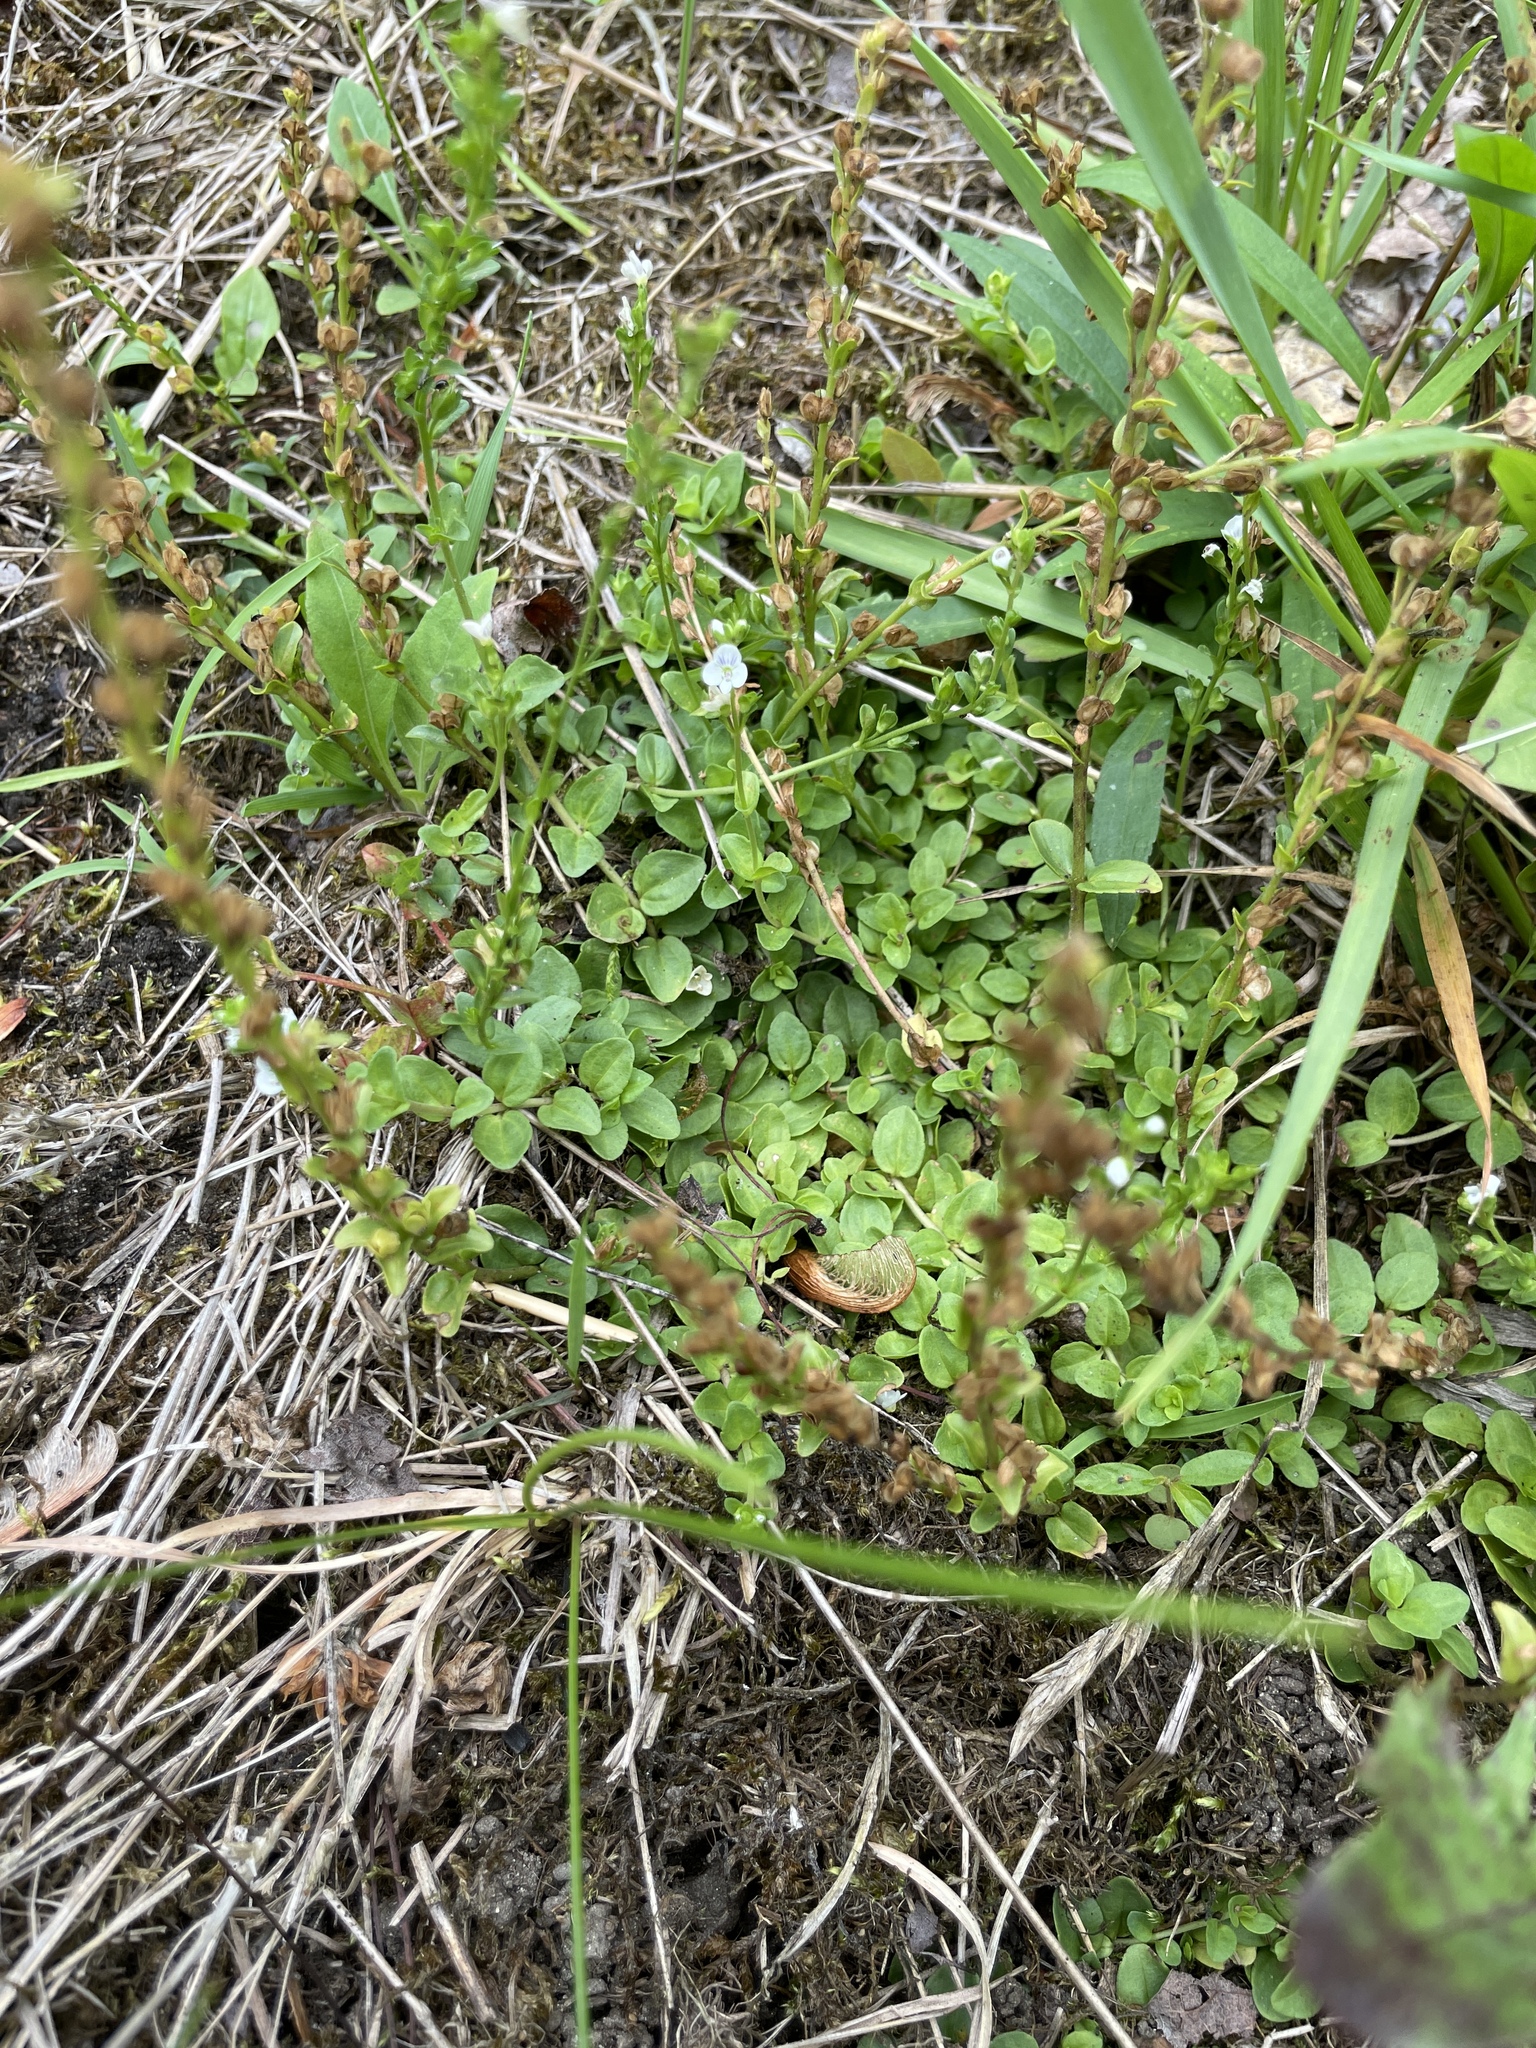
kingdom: Plantae
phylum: Tracheophyta
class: Magnoliopsida
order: Lamiales
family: Plantaginaceae
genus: Veronica
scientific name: Veronica serpyllifolia
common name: Thyme-leaved speedwell
